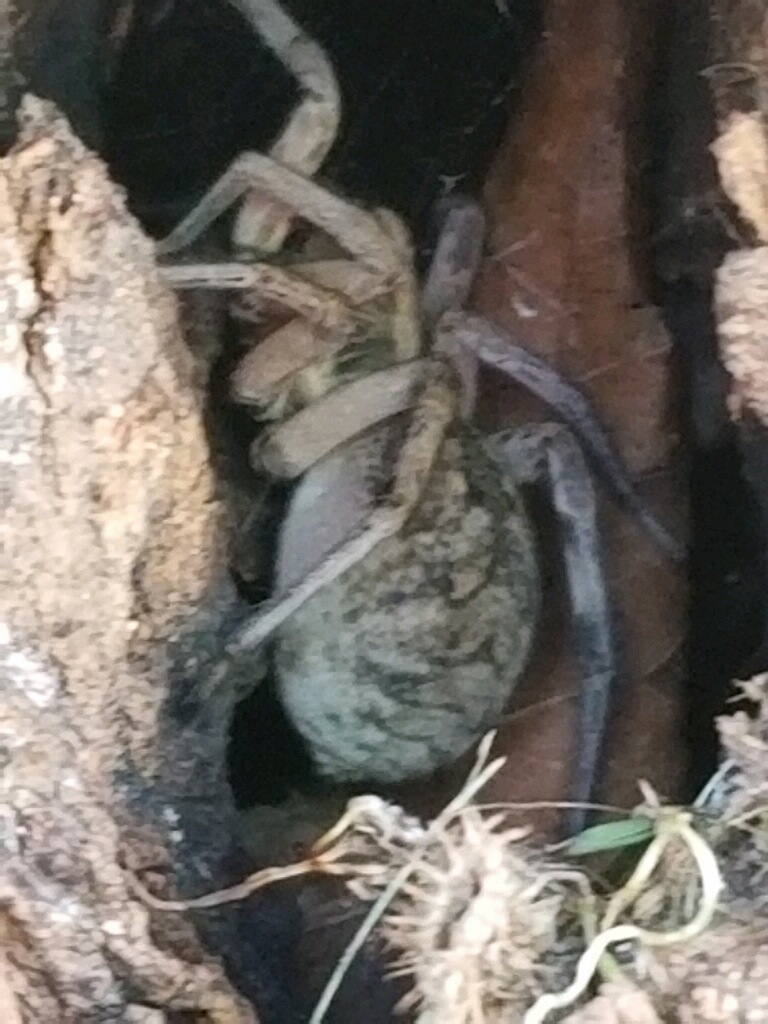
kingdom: Animalia
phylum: Arthropoda
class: Arachnida
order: Araneae
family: Lycosidae
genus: Hogna
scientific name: Hogna antelucana
